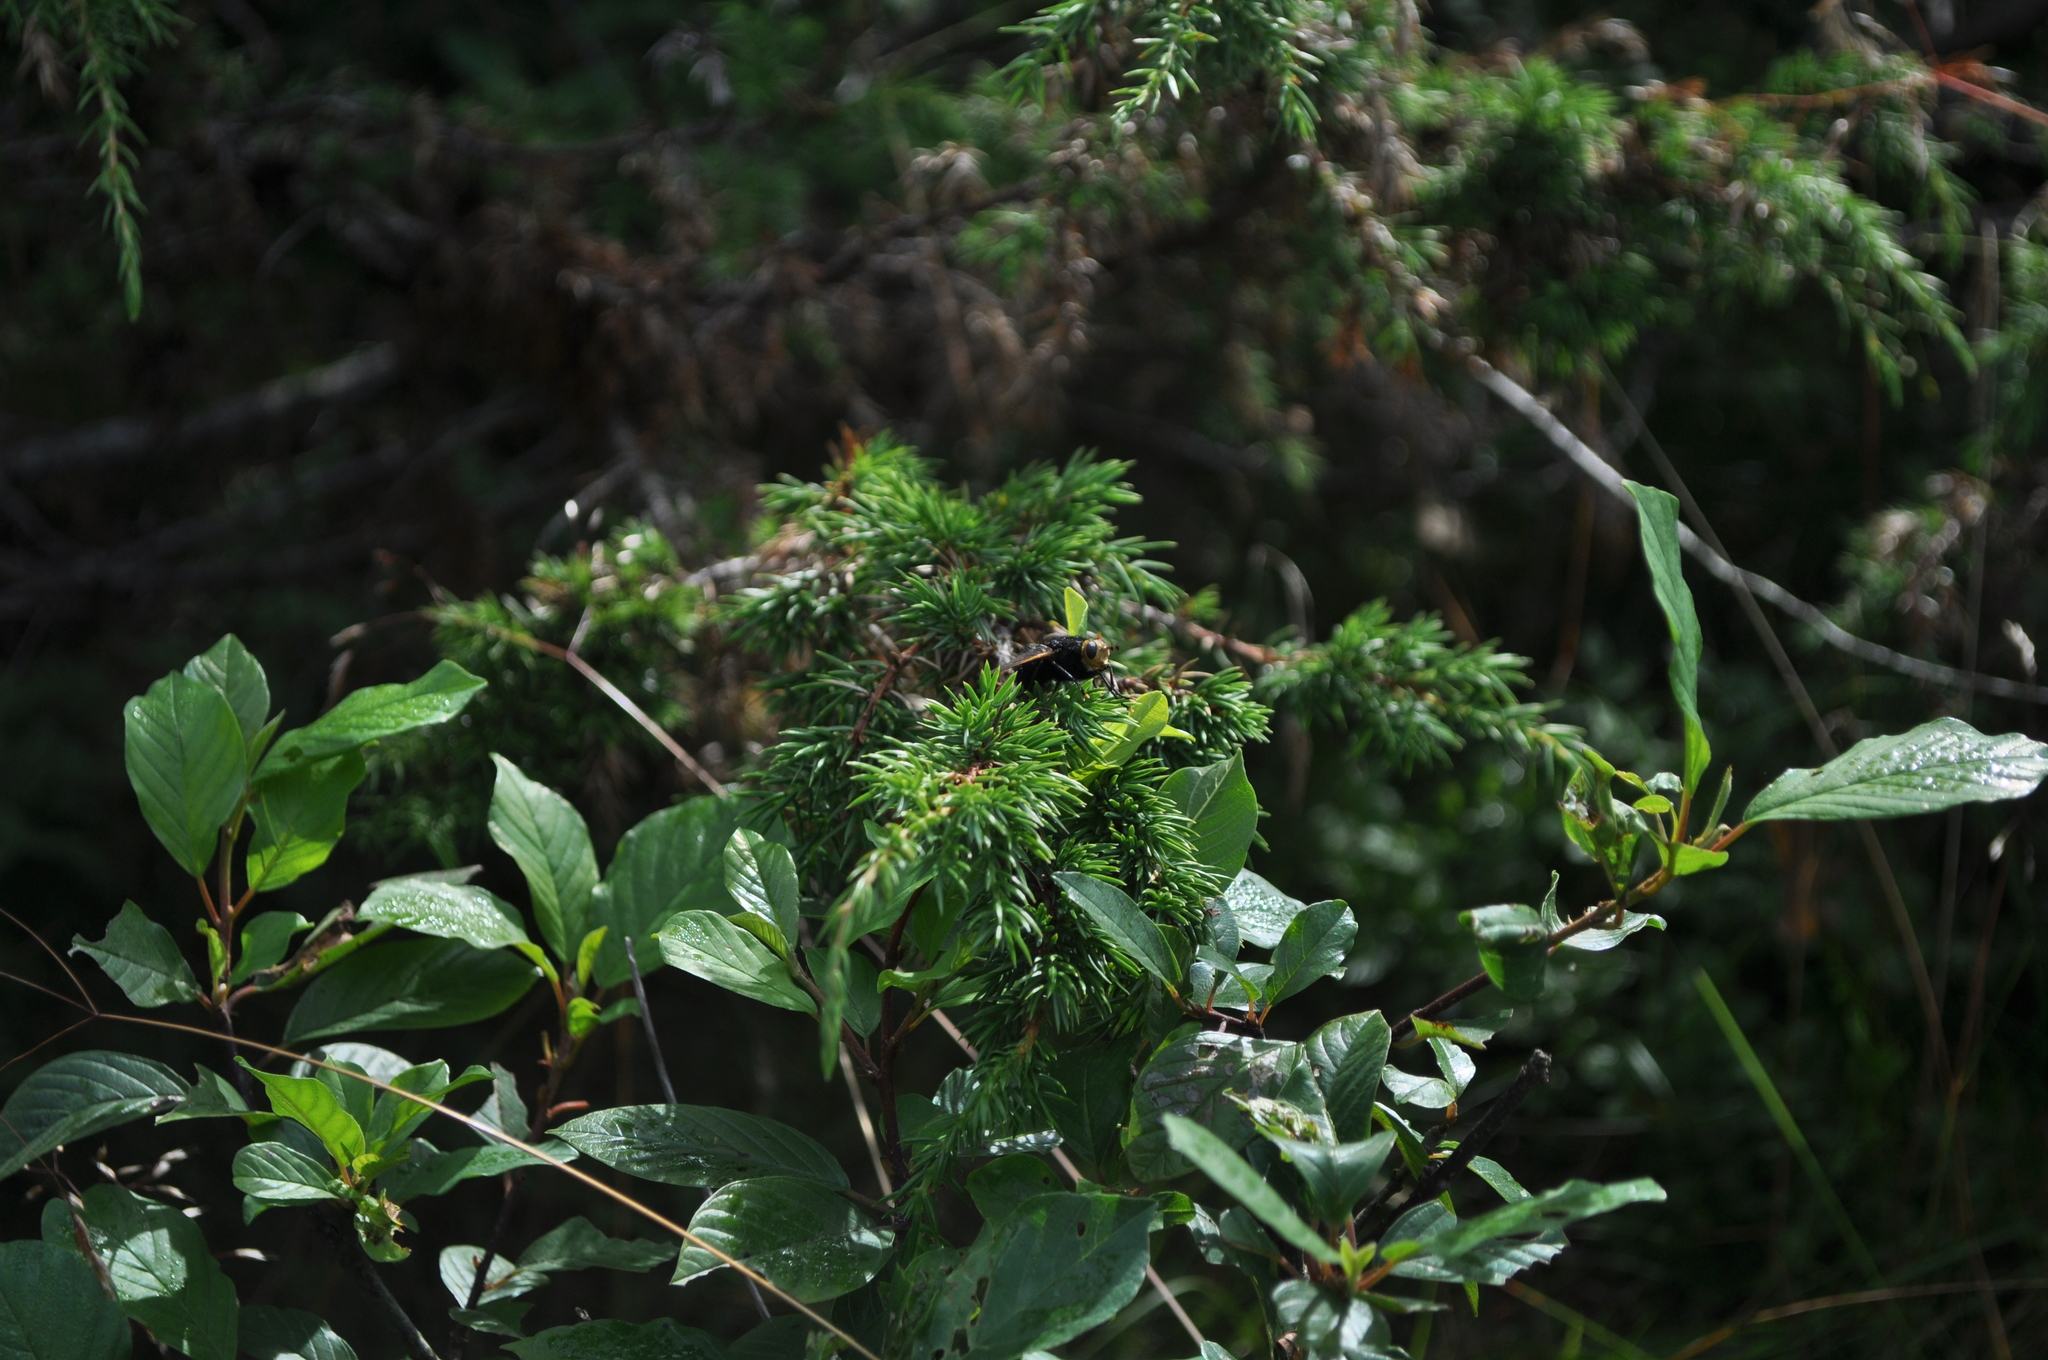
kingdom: Animalia
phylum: Arthropoda
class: Insecta
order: Diptera
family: Tachinidae
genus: Tachina
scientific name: Tachina grossa
